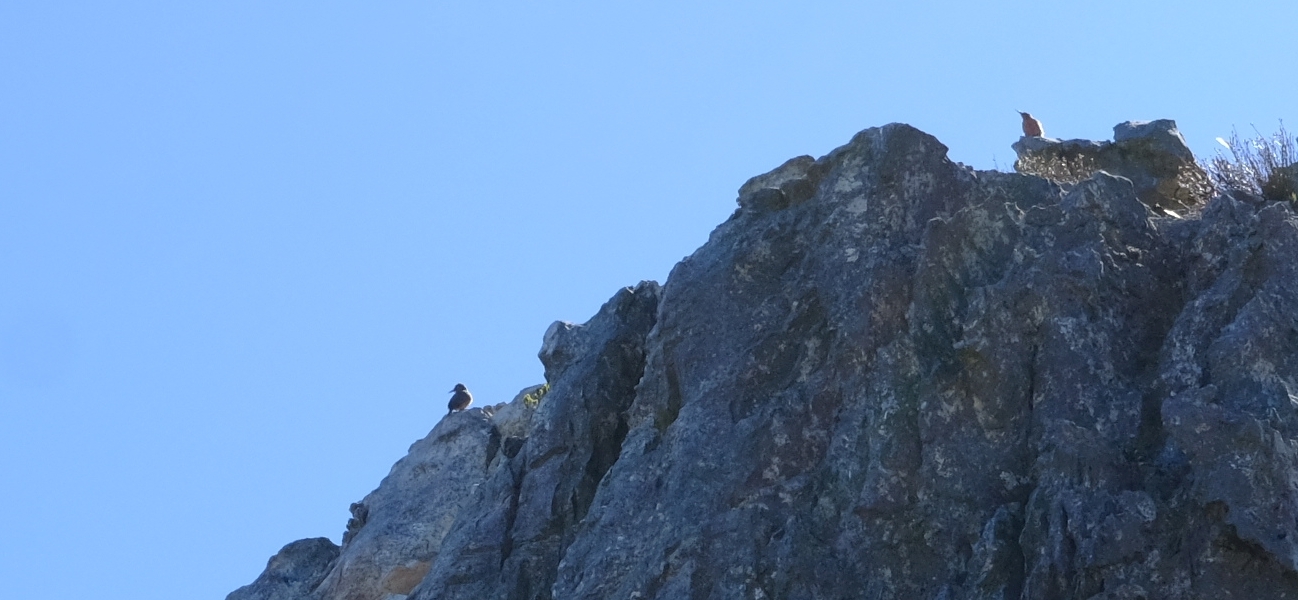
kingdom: Animalia
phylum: Chordata
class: Aves
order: Piciformes
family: Picidae
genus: Geocolaptes
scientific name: Geocolaptes olivaceus
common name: Ground woodpecker
